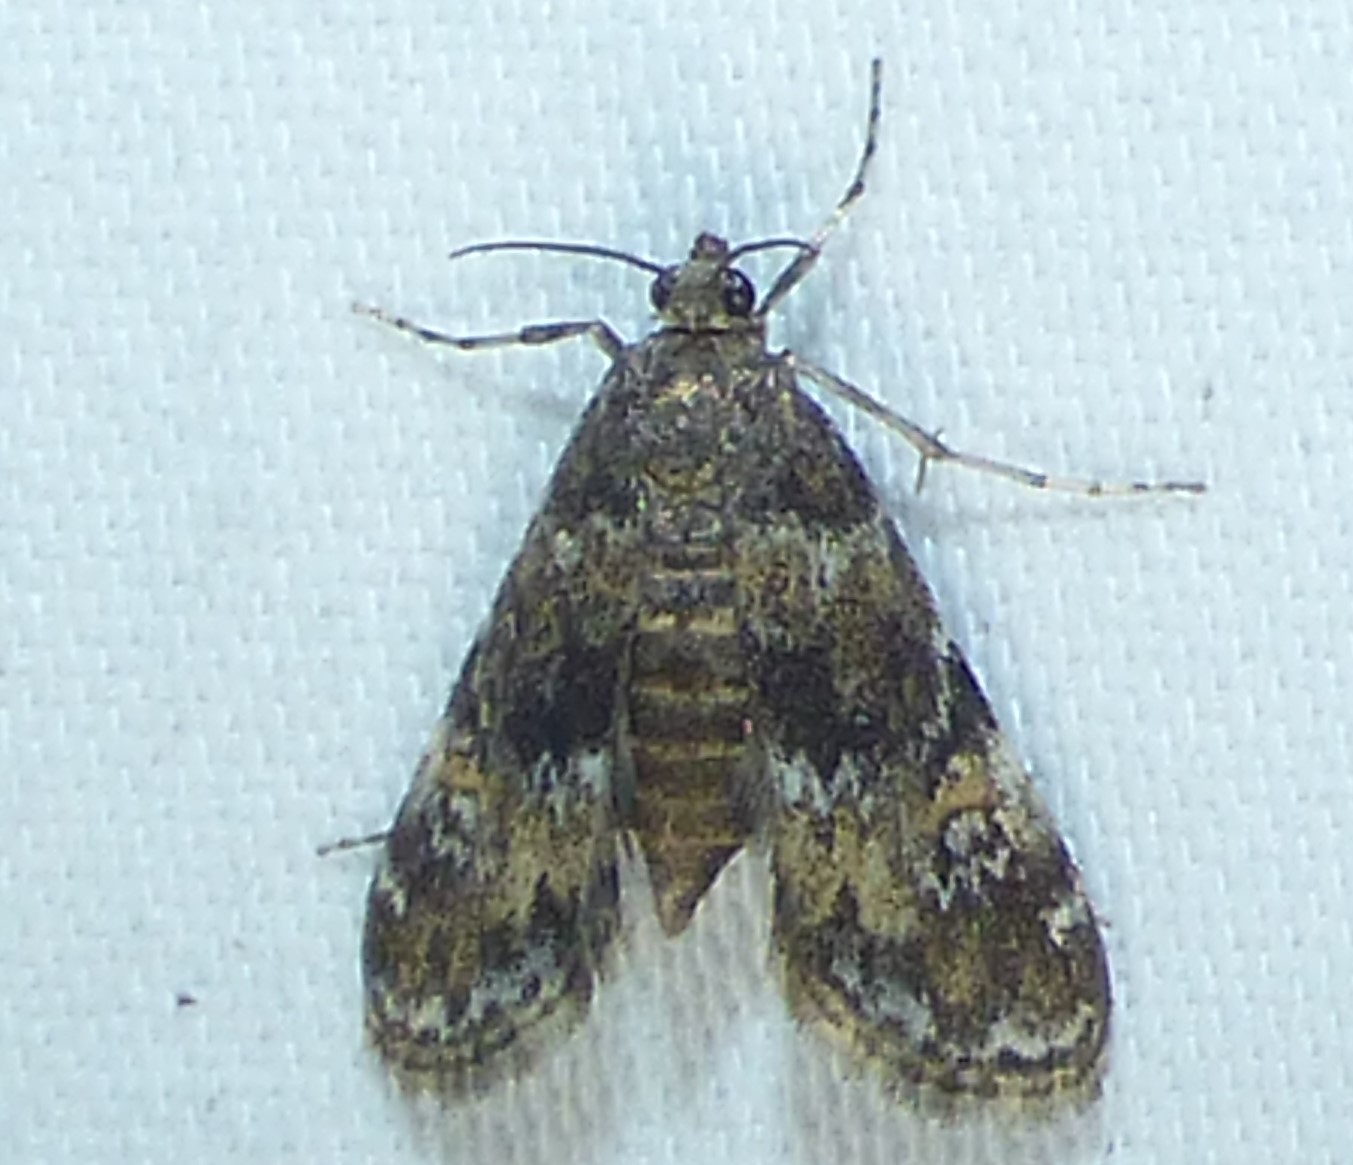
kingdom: Animalia
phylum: Arthropoda
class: Insecta
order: Lepidoptera
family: Crambidae
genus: Elophila
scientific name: Elophila obliteralis
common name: Waterlily leafcutter moth
